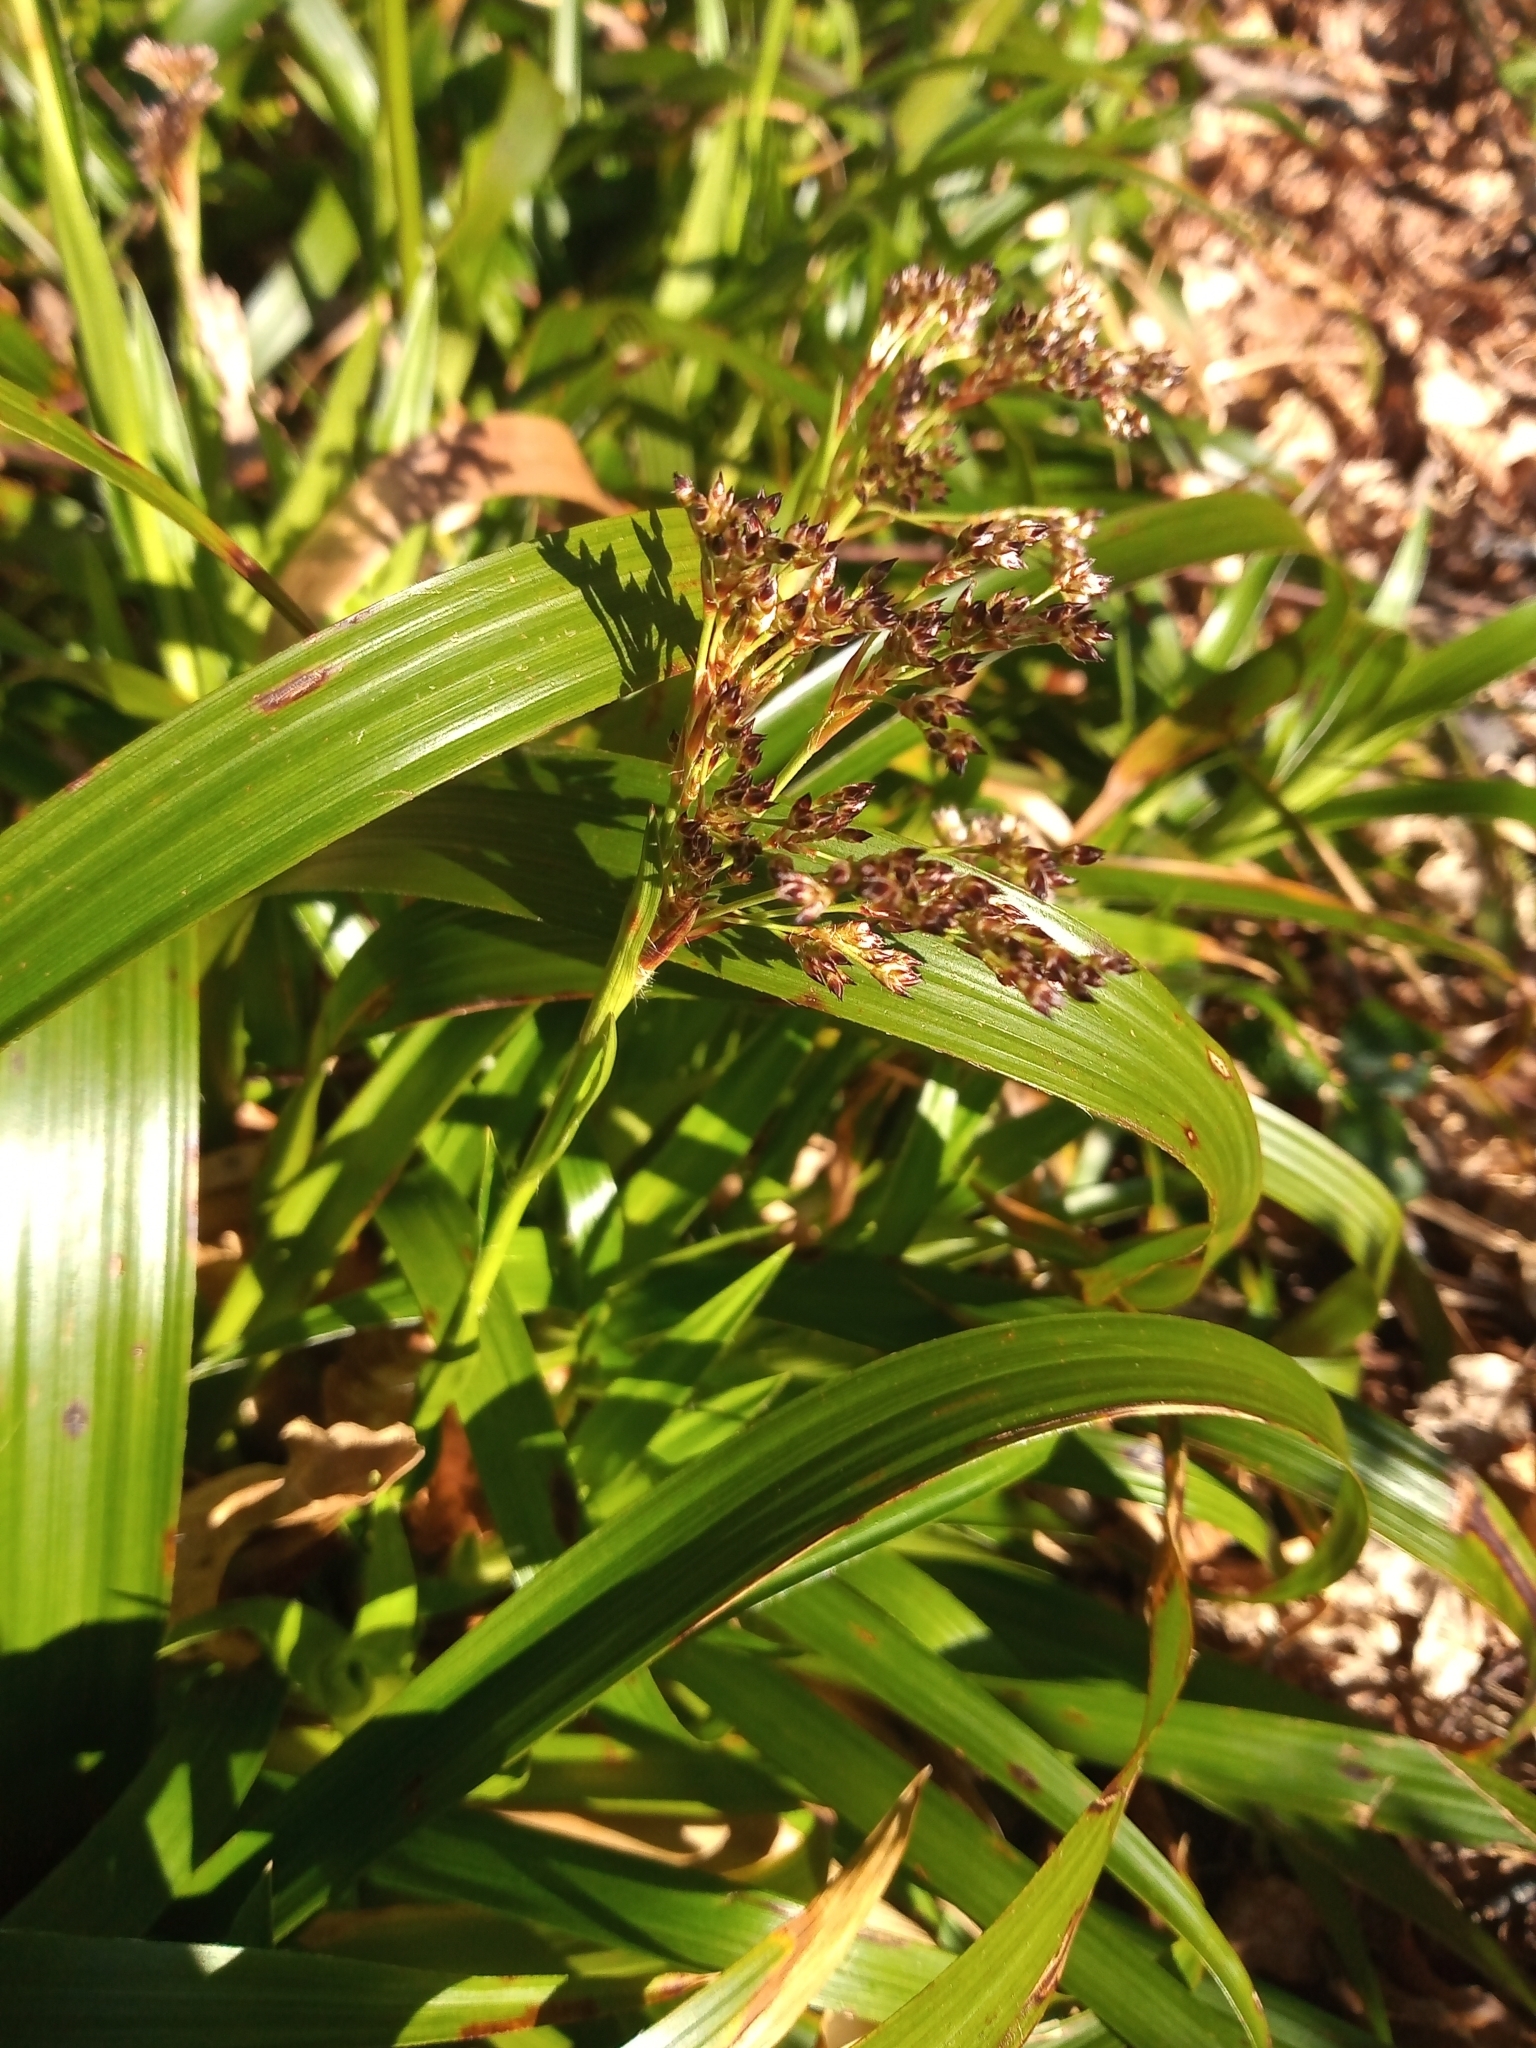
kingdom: Plantae
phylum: Tracheophyta
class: Liliopsida
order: Poales
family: Juncaceae
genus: Luzula
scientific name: Luzula sylvatica
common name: Great wood-rush
